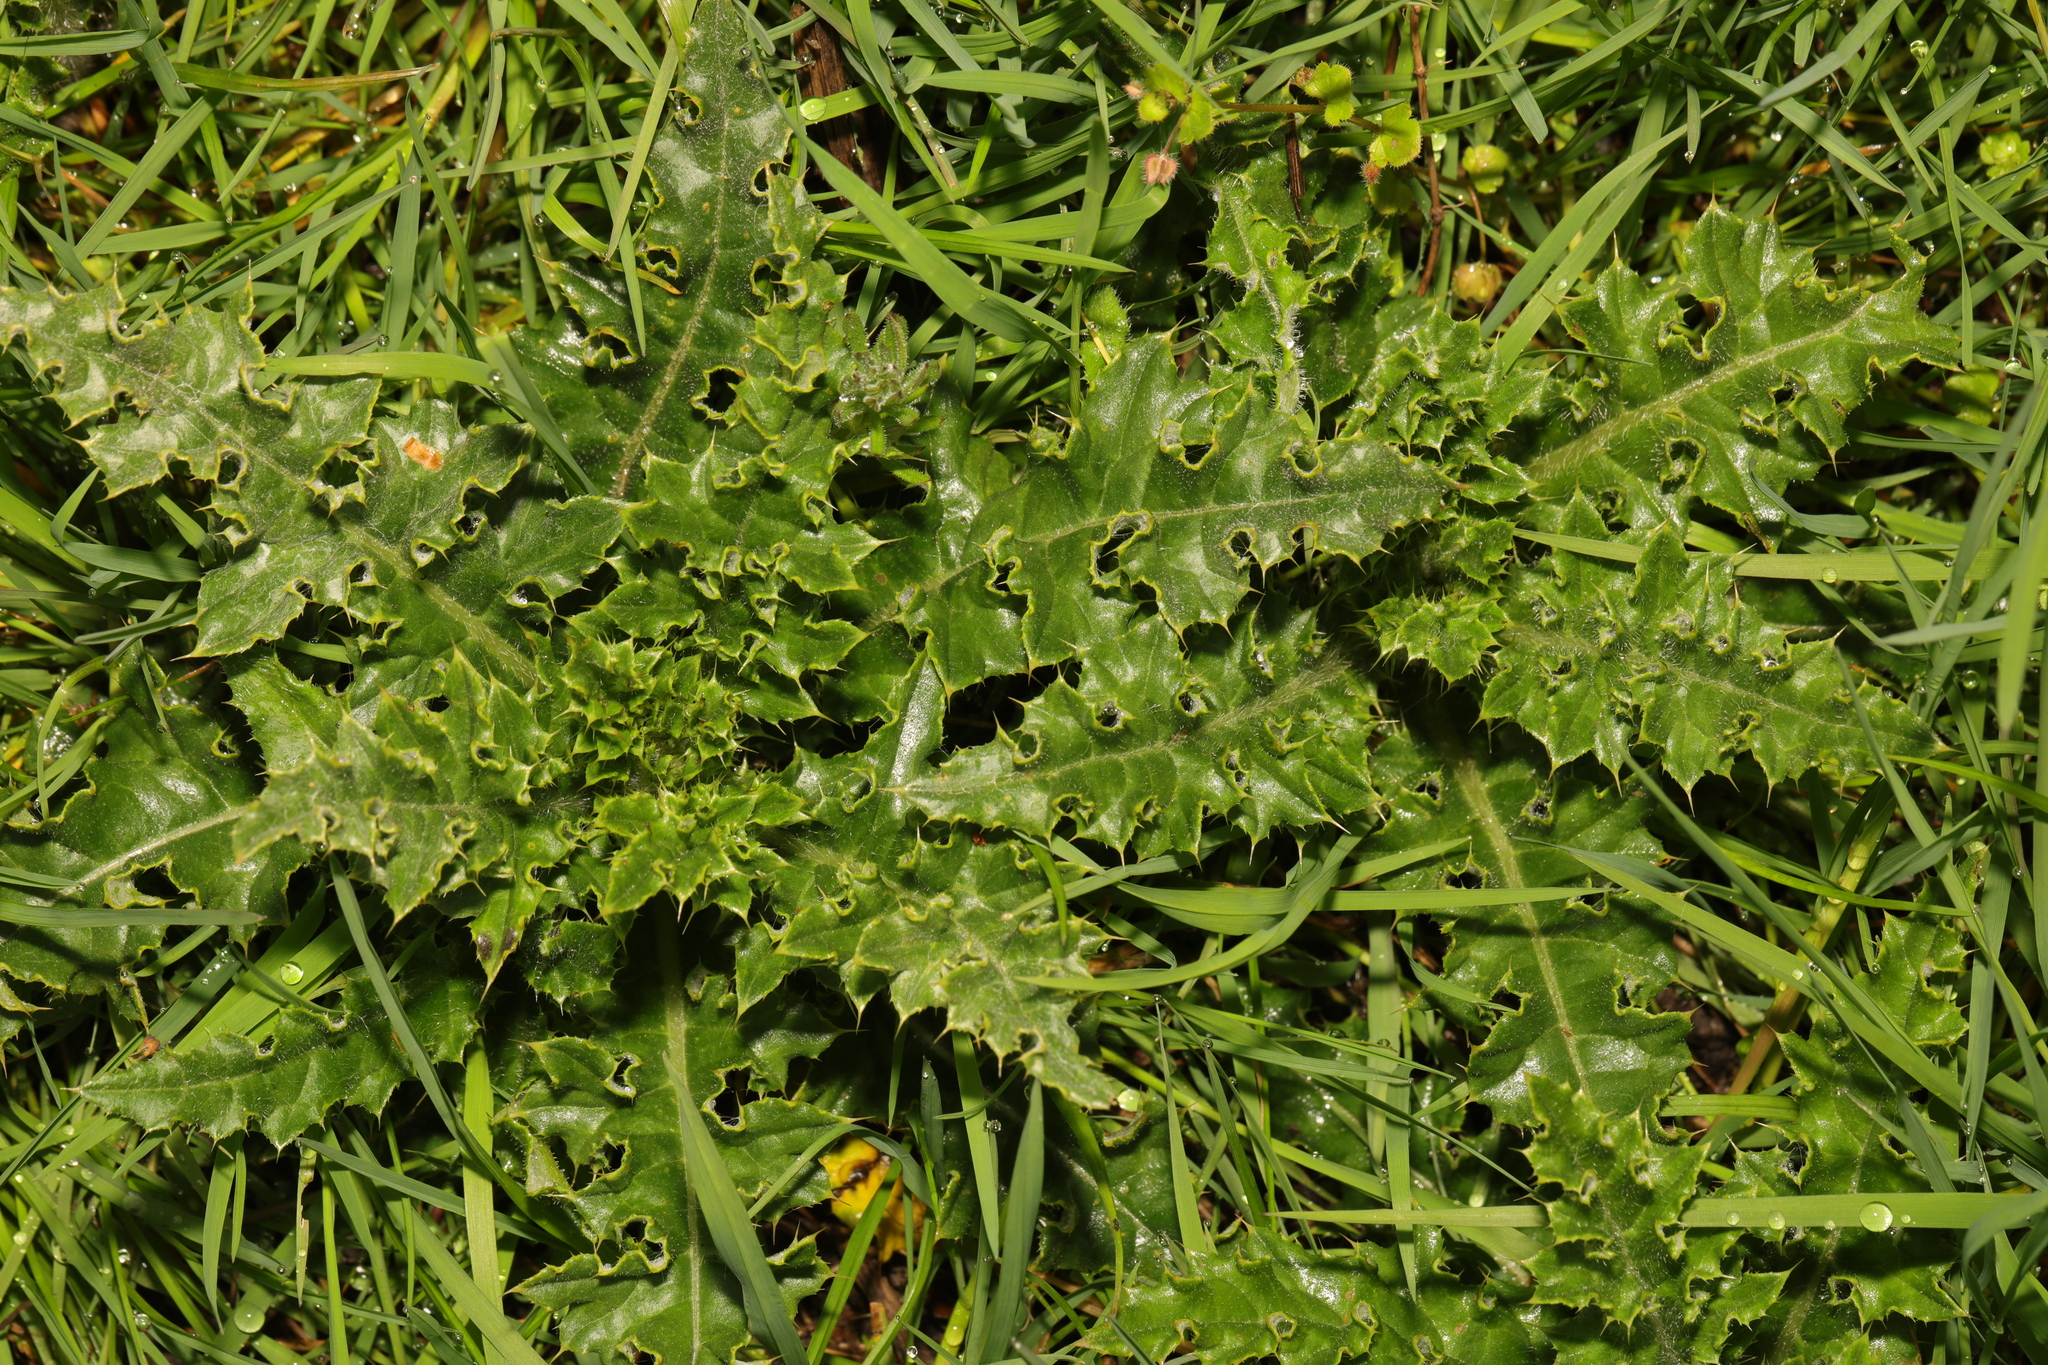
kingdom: Plantae
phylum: Tracheophyta
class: Magnoliopsida
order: Asterales
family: Asteraceae
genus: Cirsium
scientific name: Cirsium arvense
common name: Creeping thistle
